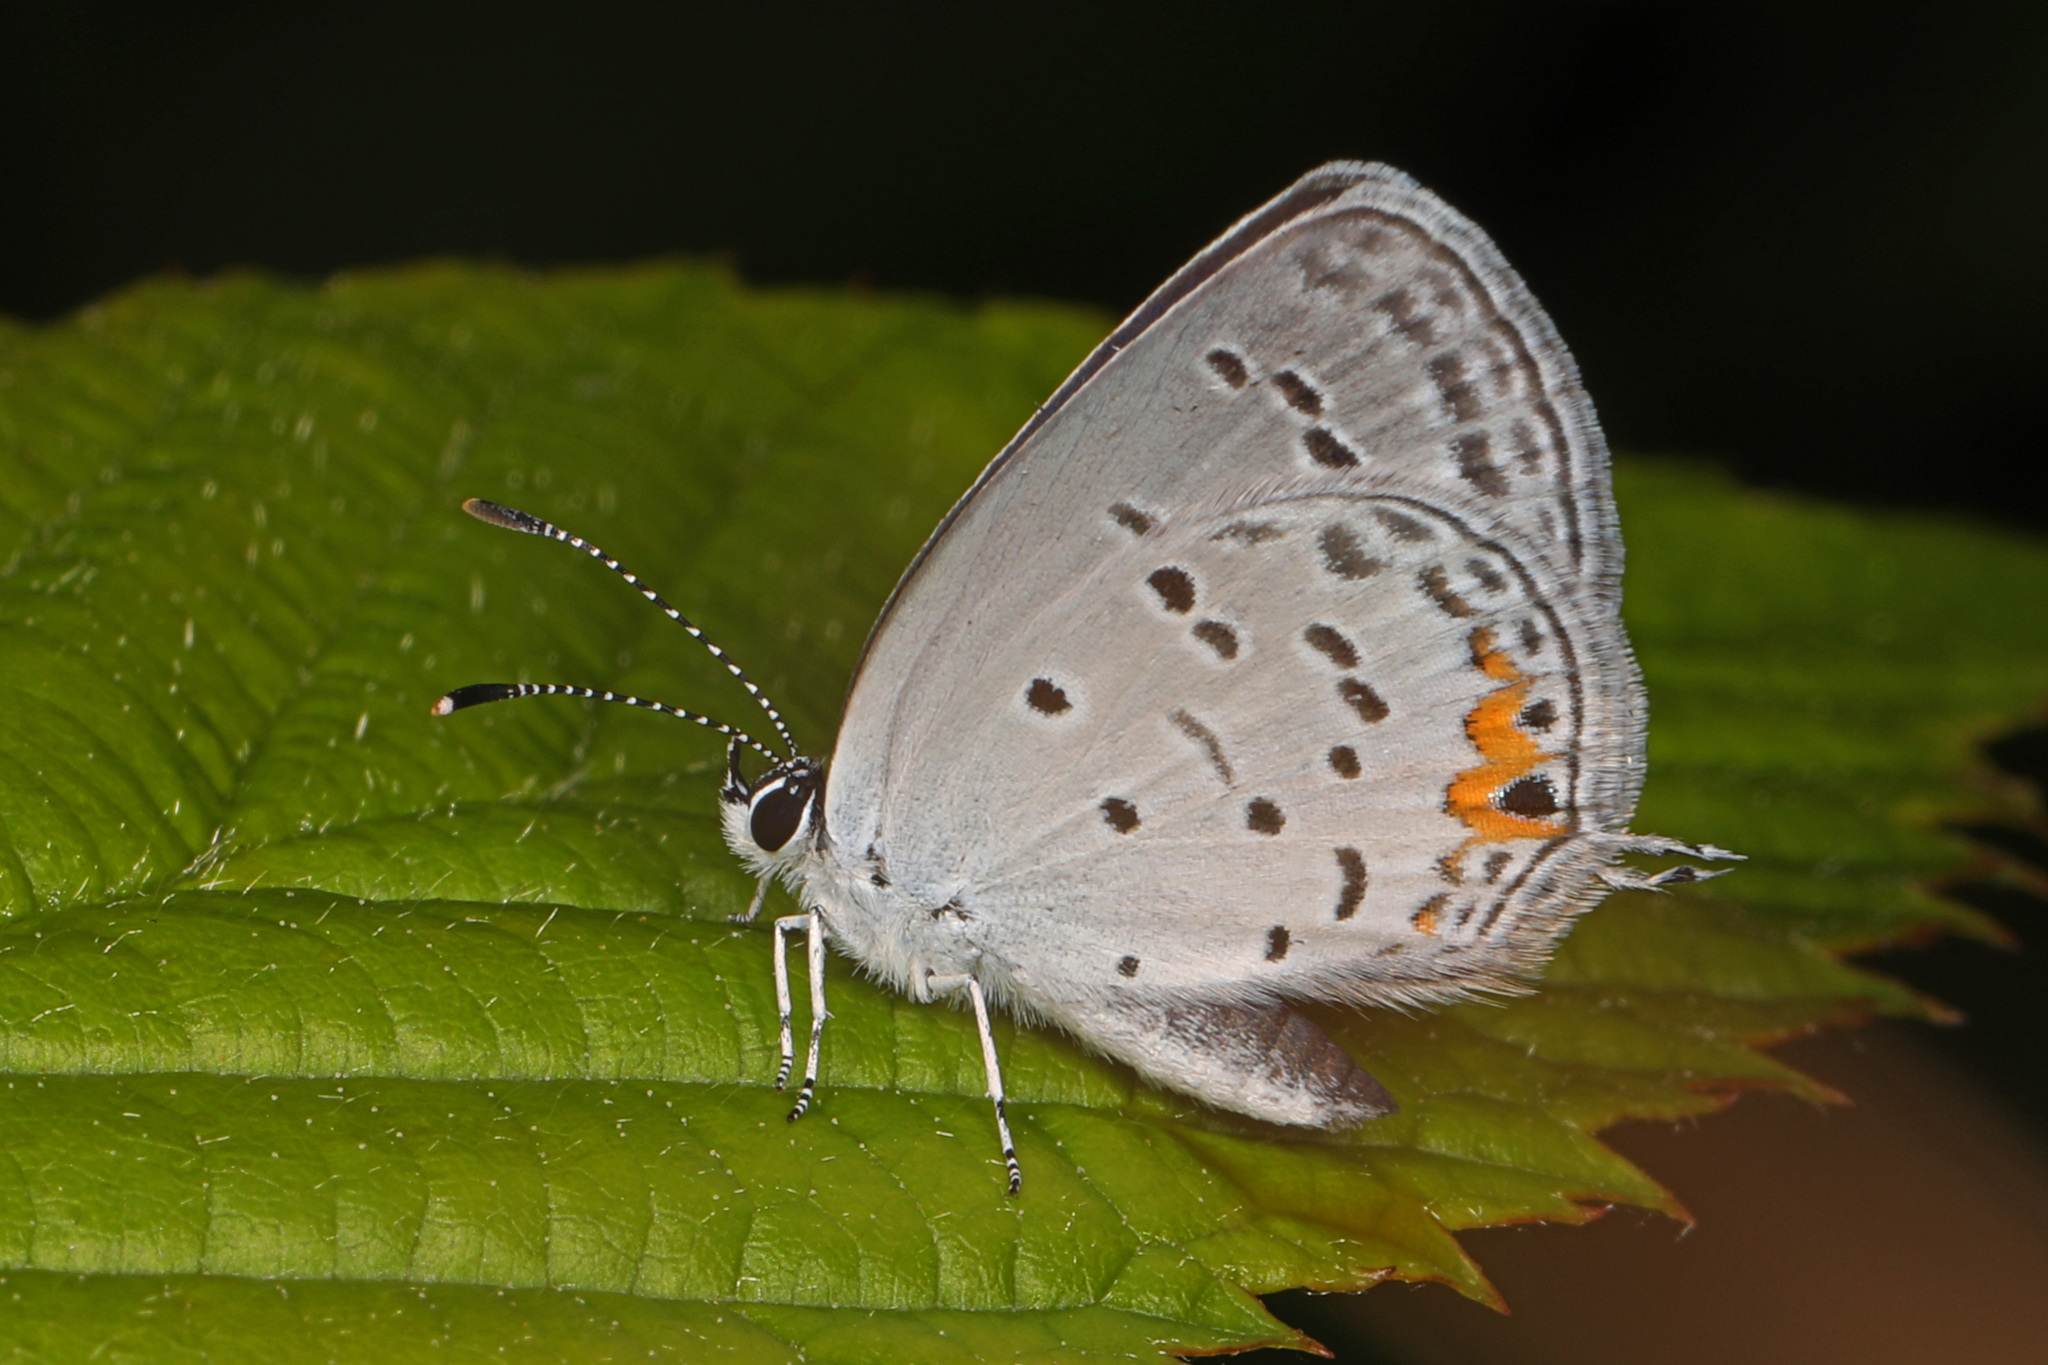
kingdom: Animalia
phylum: Arthropoda
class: Insecta
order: Lepidoptera
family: Lycaenidae
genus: Elkalyce
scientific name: Elkalyce comyntas
